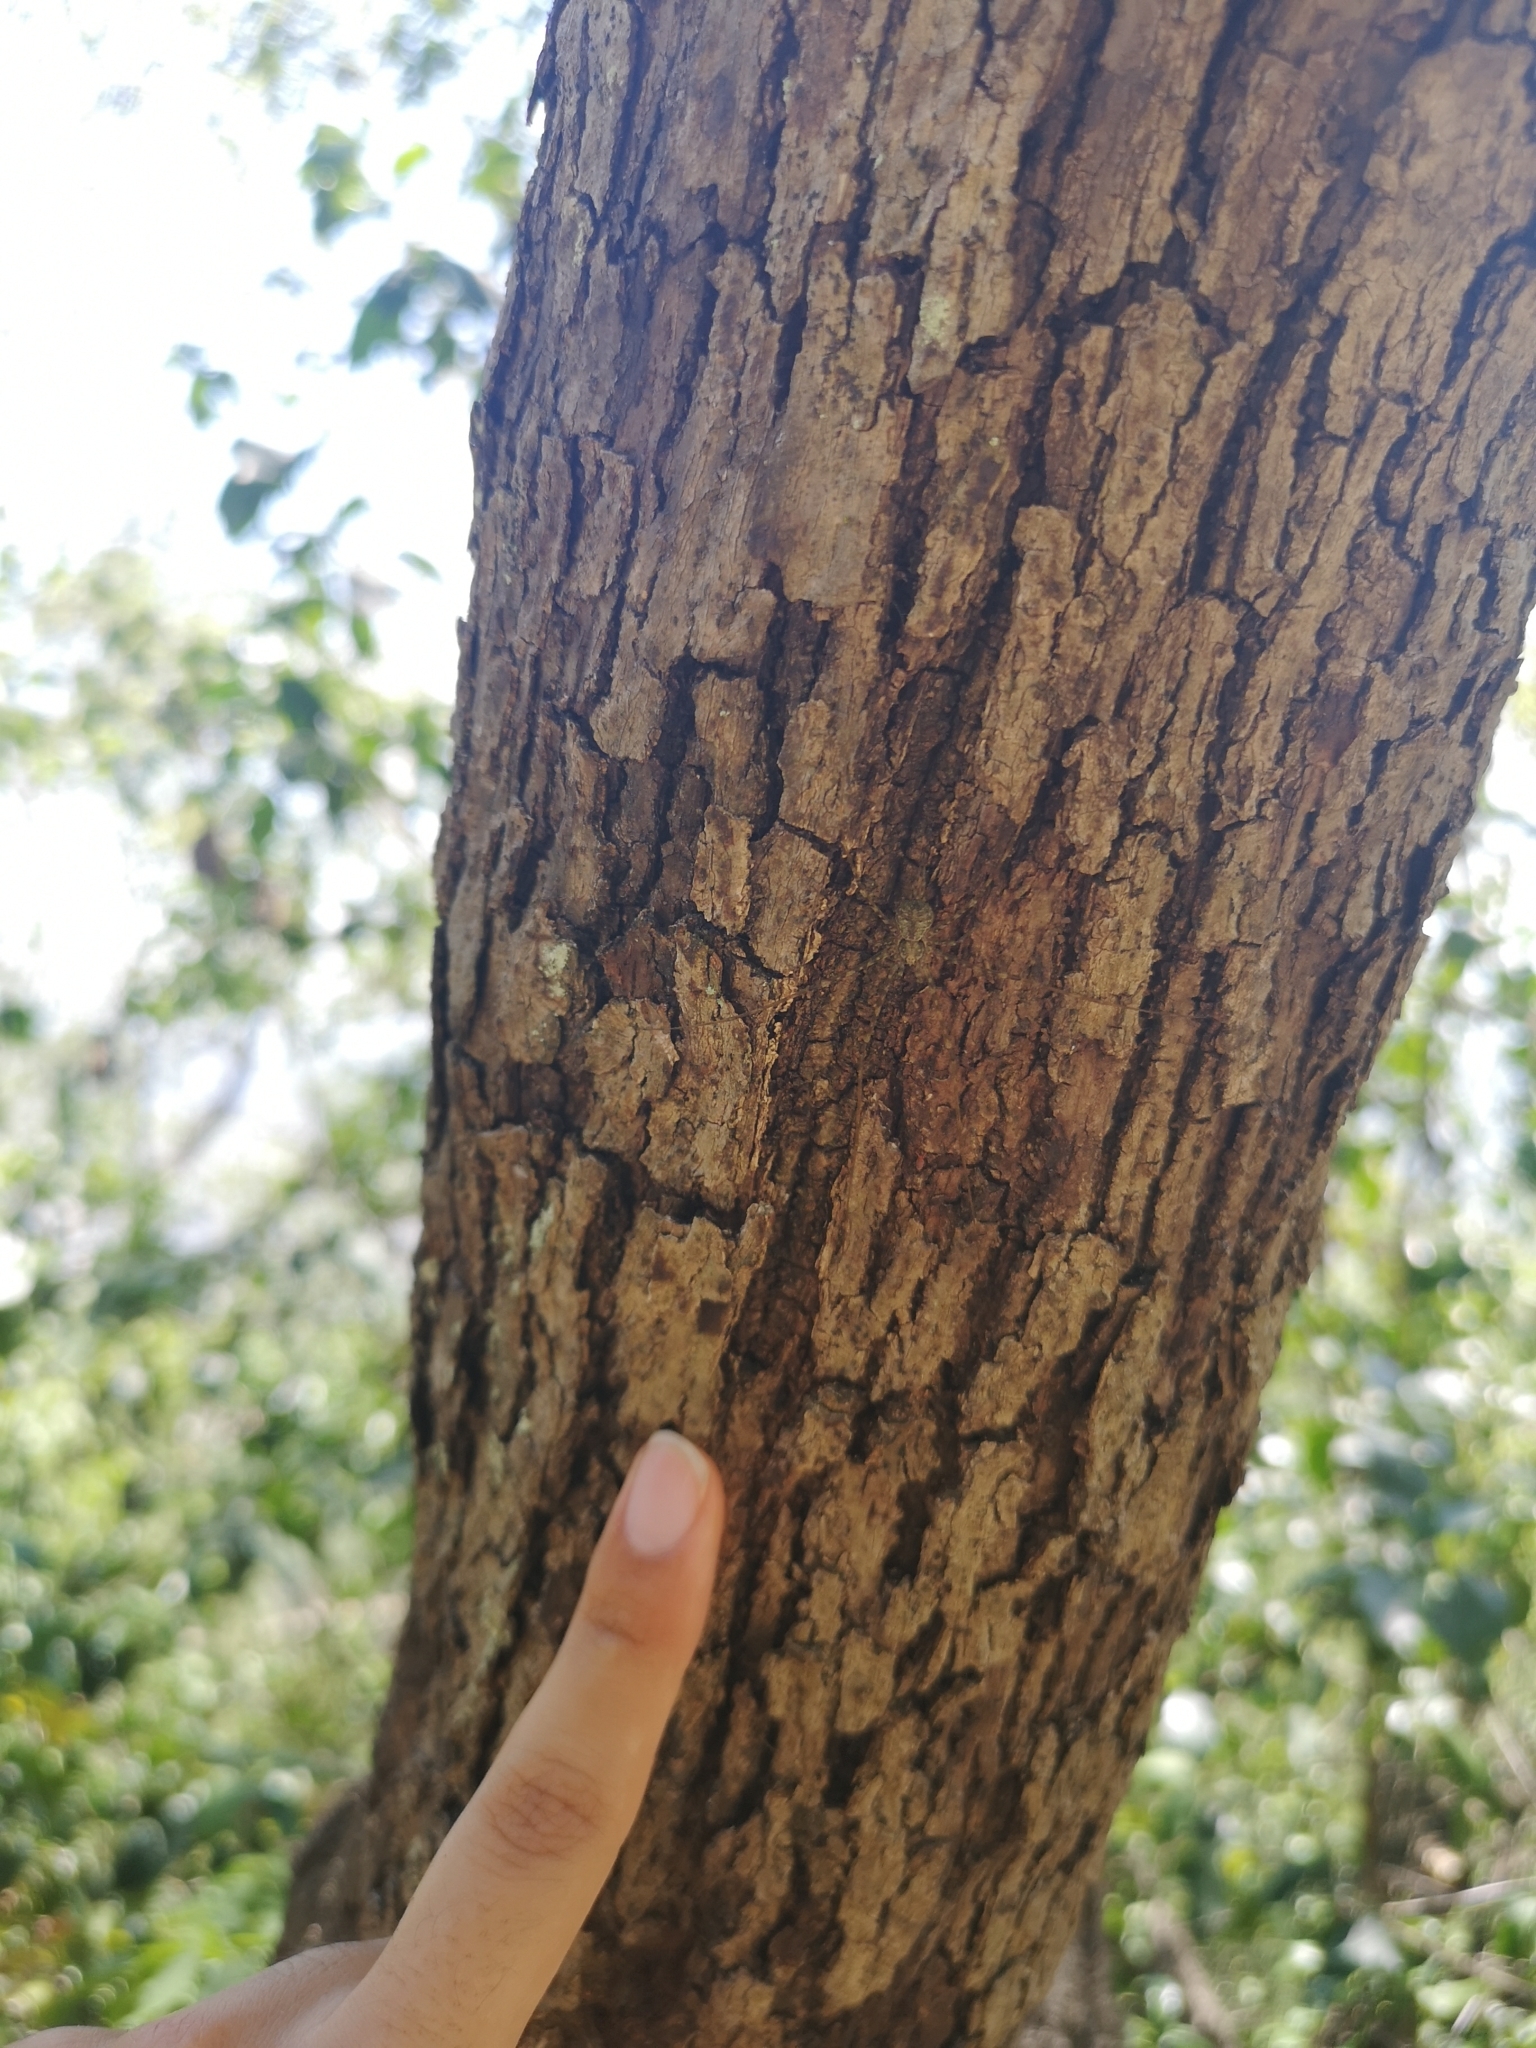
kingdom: Animalia
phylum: Arthropoda
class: Arachnida
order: Araneae
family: Hersiliidae
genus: Neotama
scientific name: Neotama mexicana
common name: Tree trunk spiders
